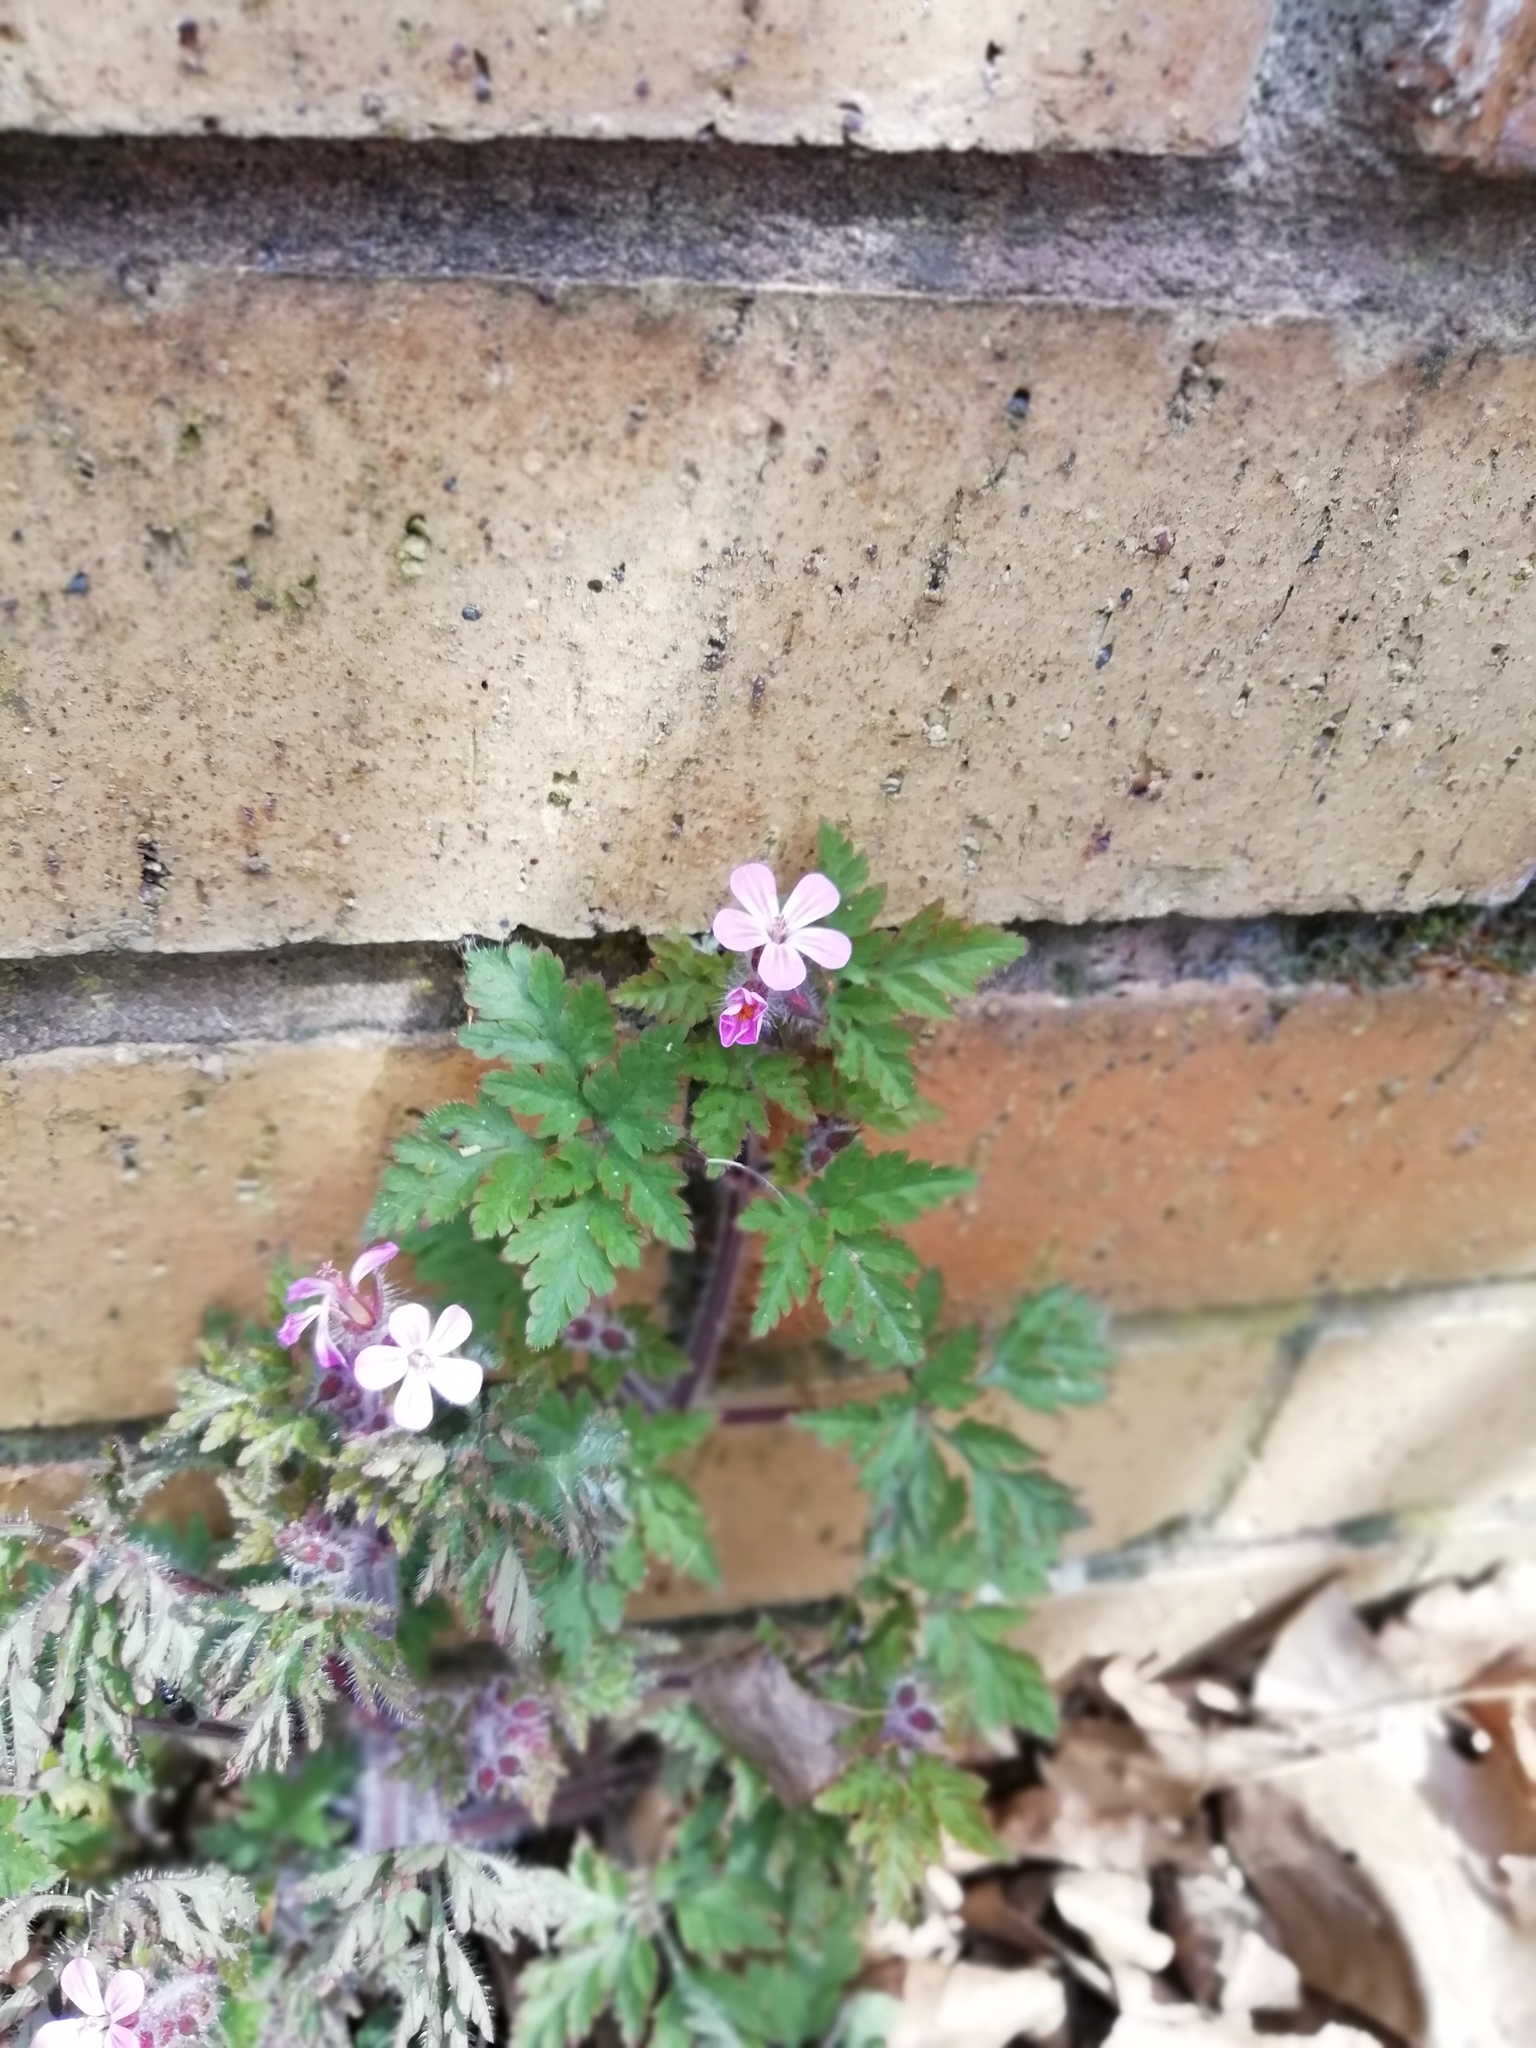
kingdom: Plantae
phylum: Tracheophyta
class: Magnoliopsida
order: Geraniales
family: Geraniaceae
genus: Geranium
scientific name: Geranium robertianum
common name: Herb-robert
